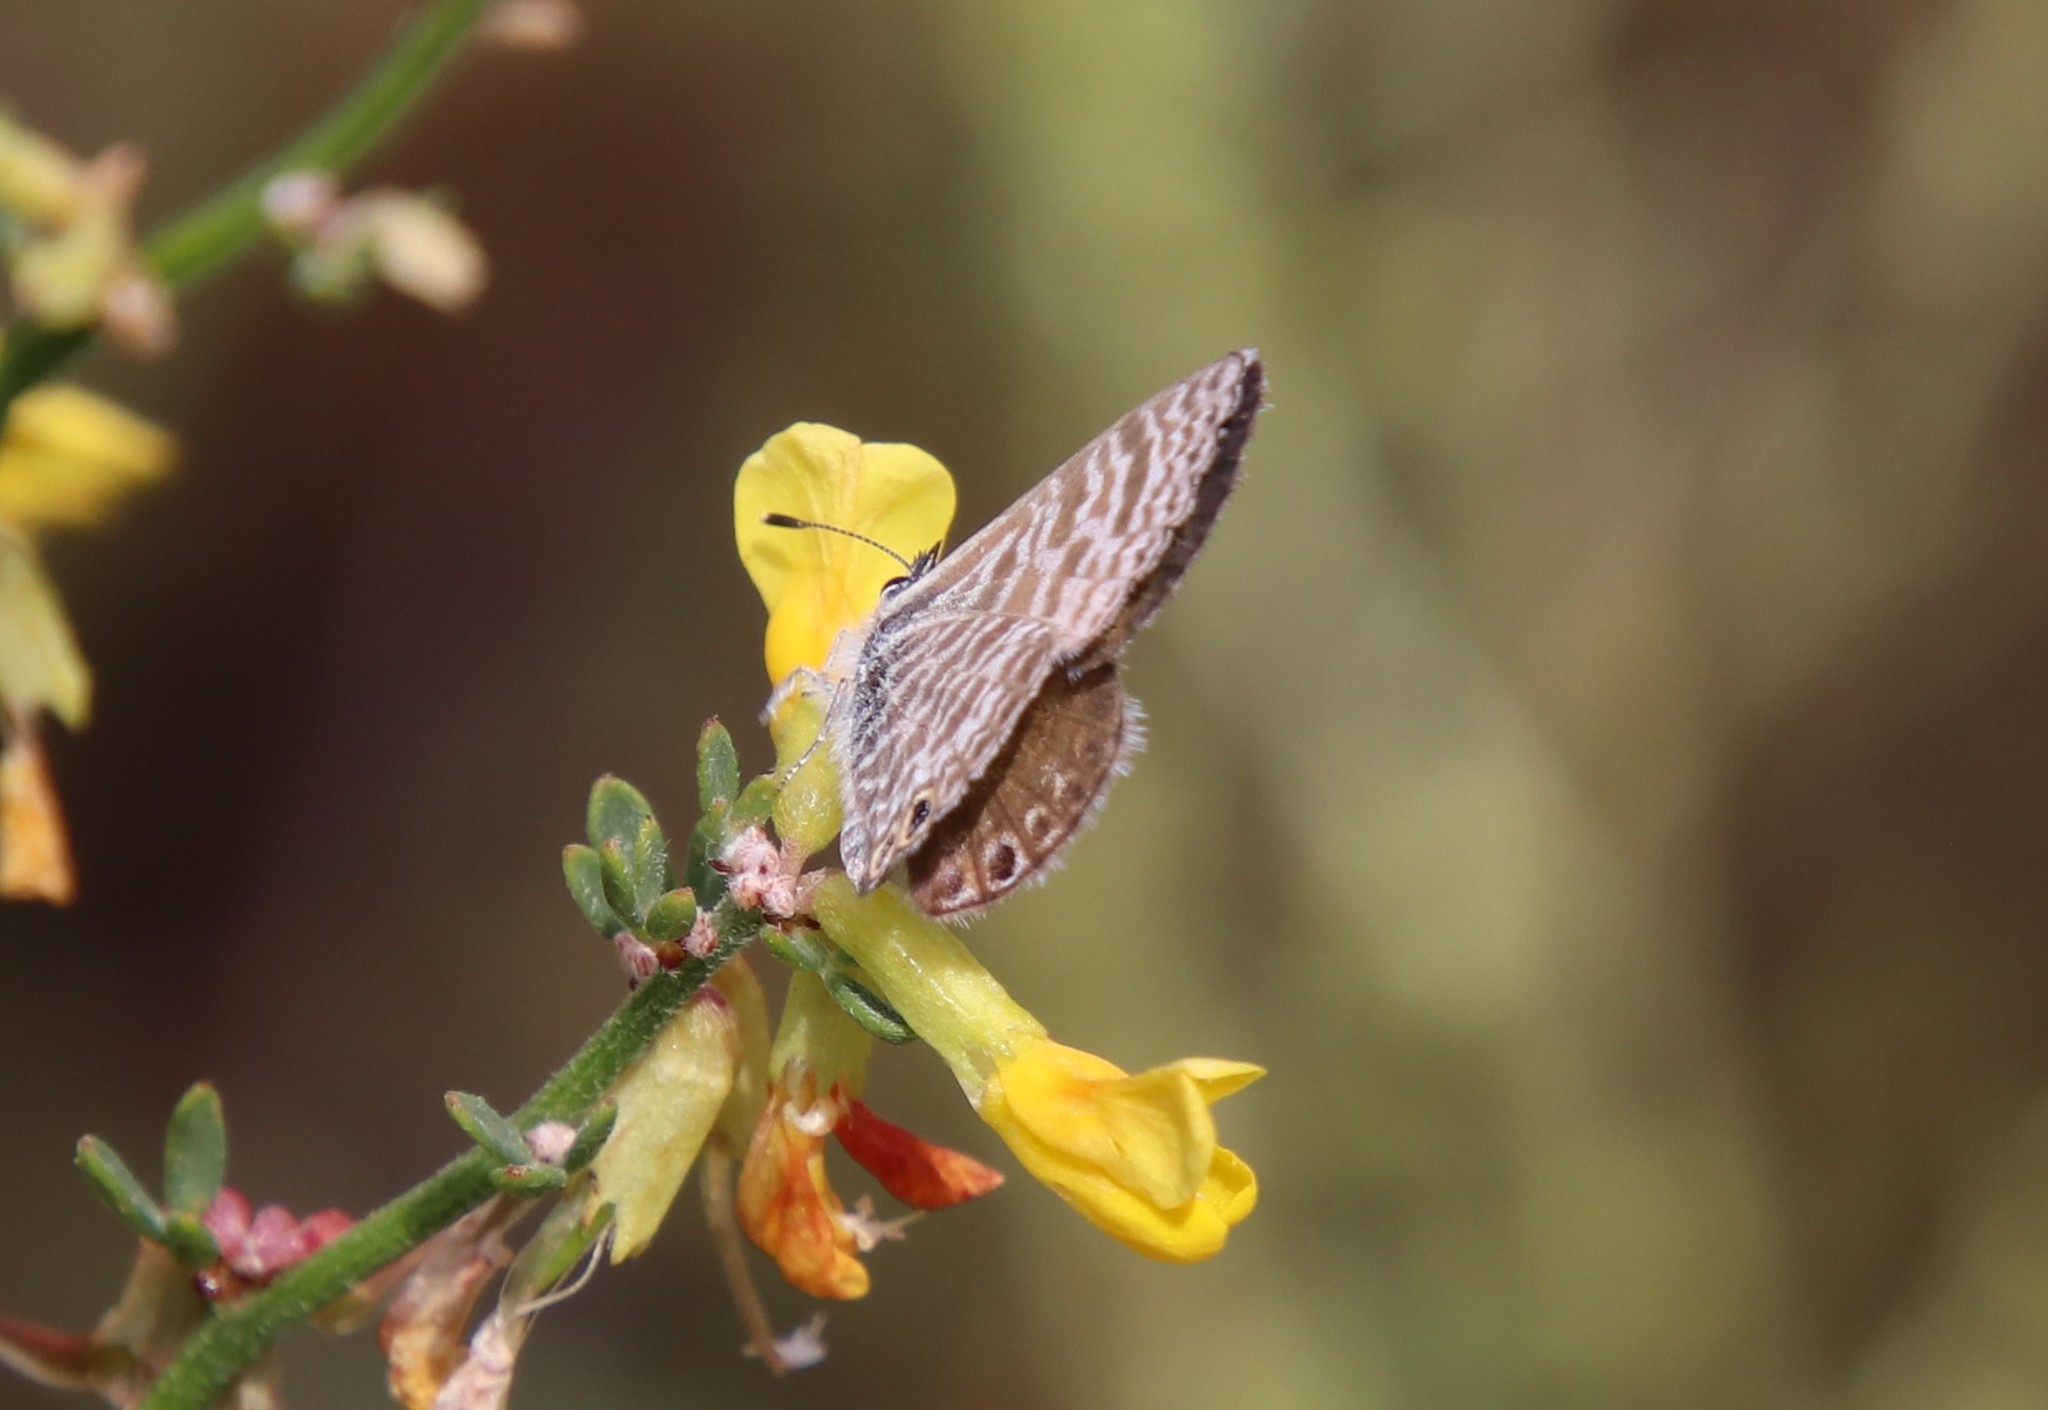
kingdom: Animalia
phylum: Arthropoda
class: Insecta
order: Lepidoptera
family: Lycaenidae
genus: Leptotes
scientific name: Leptotes marina
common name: Marine blue
